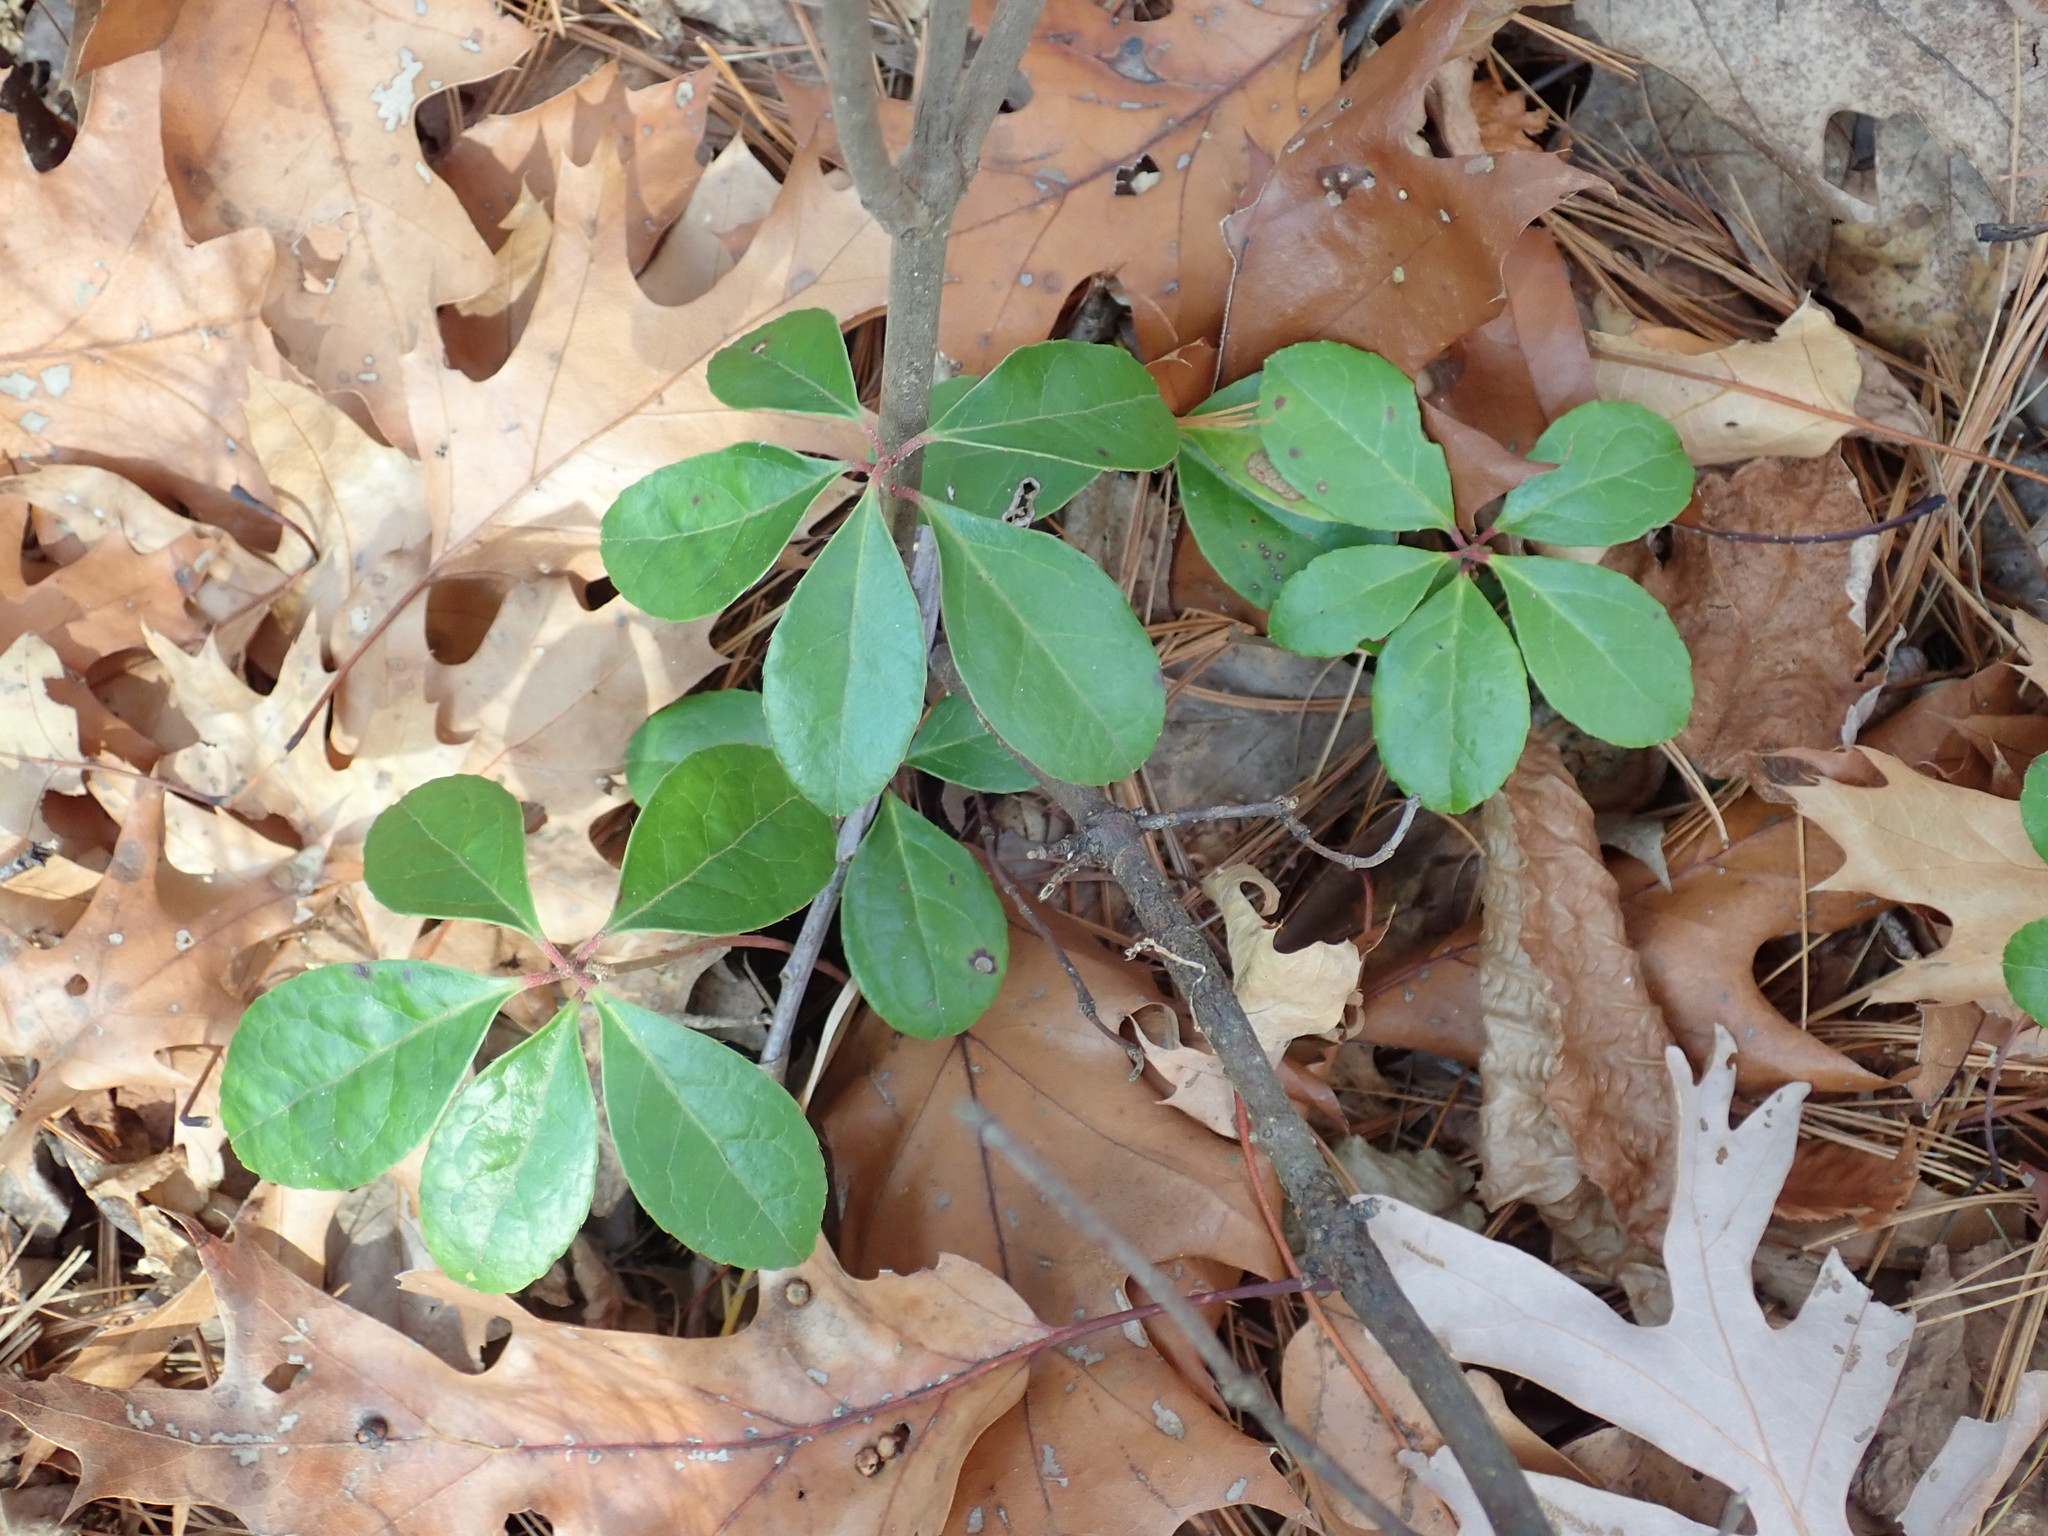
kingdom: Plantae
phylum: Tracheophyta
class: Magnoliopsida
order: Ericales
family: Ericaceae
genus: Gaultheria
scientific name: Gaultheria procumbens
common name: Checkerberry
